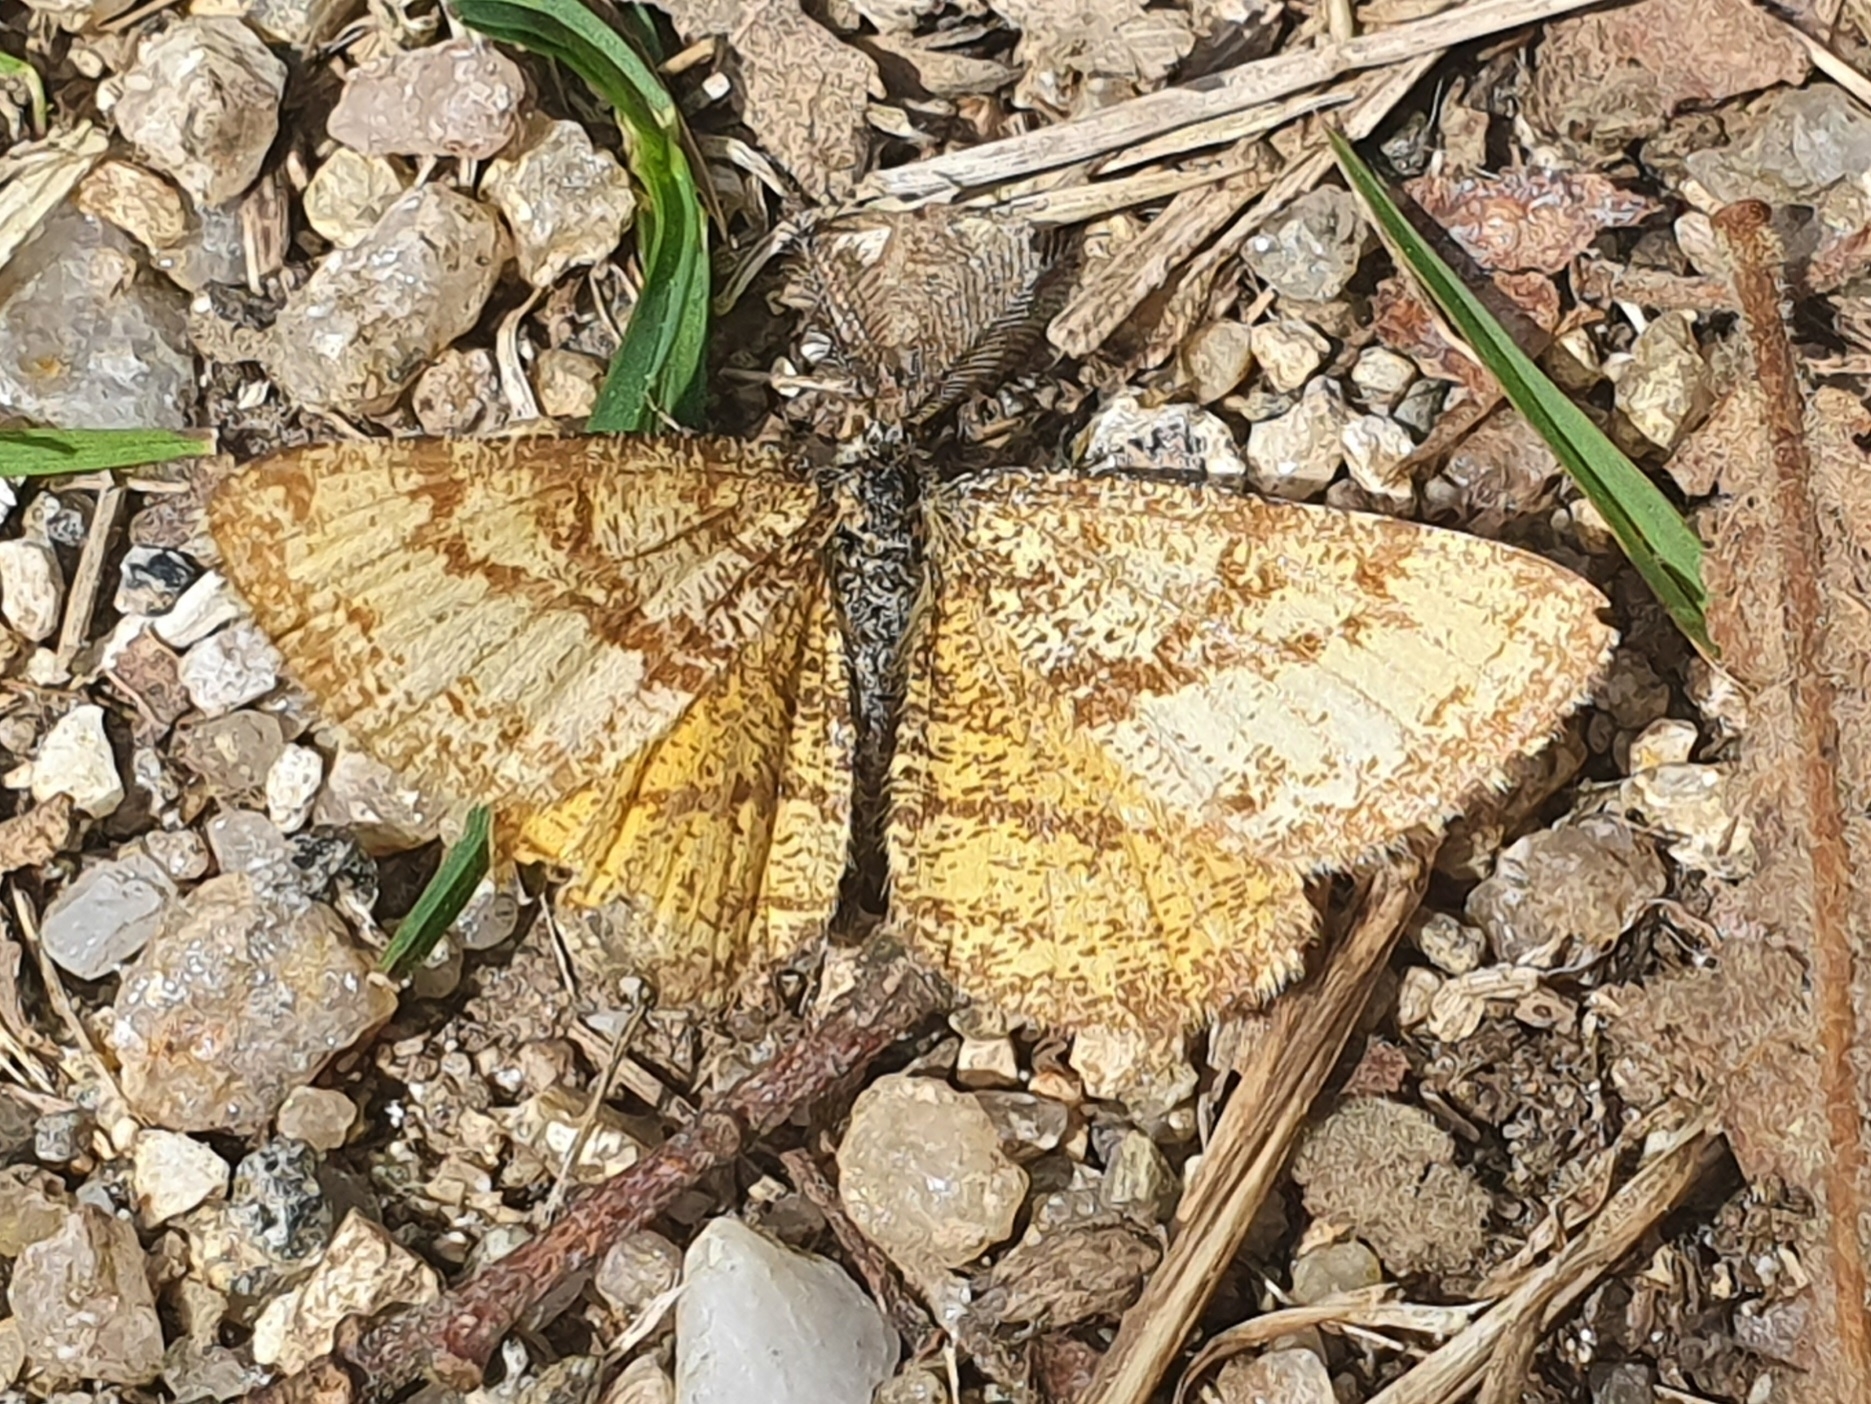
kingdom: Animalia
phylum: Arthropoda
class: Insecta
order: Lepidoptera
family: Geometridae
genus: Ematurga
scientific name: Ematurga atomaria
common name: Common heath
